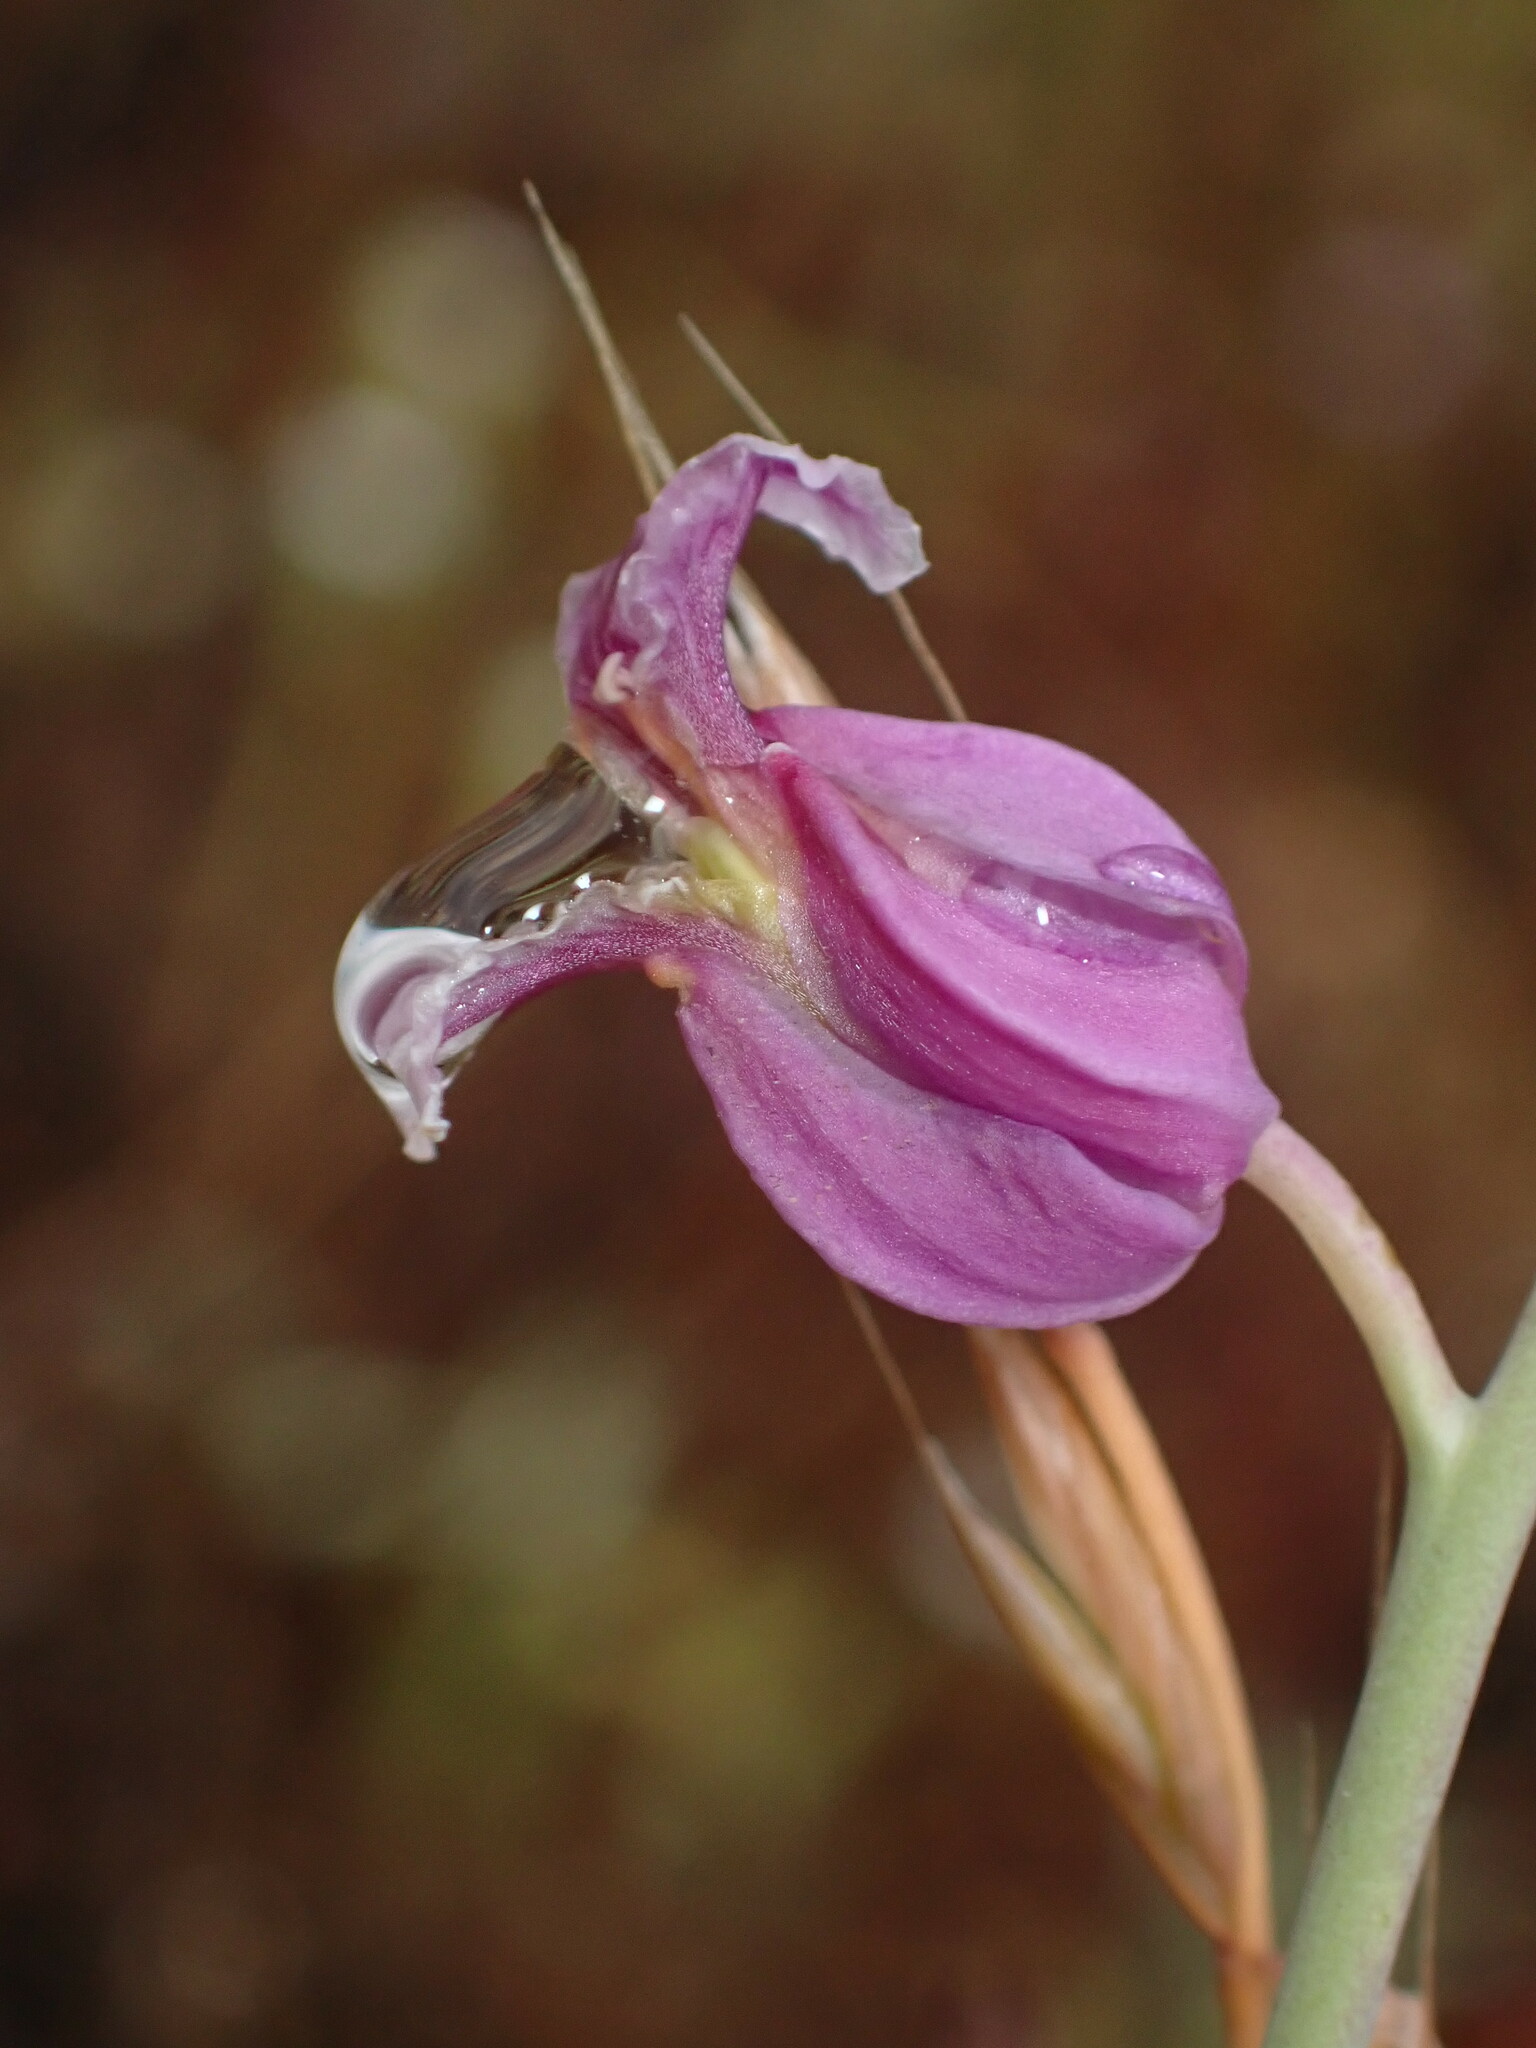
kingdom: Plantae
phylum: Tracheophyta
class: Magnoliopsida
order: Brassicales
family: Brassicaceae
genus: Streptanthus
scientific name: Streptanthus glandulosus
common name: Jewel-flower
